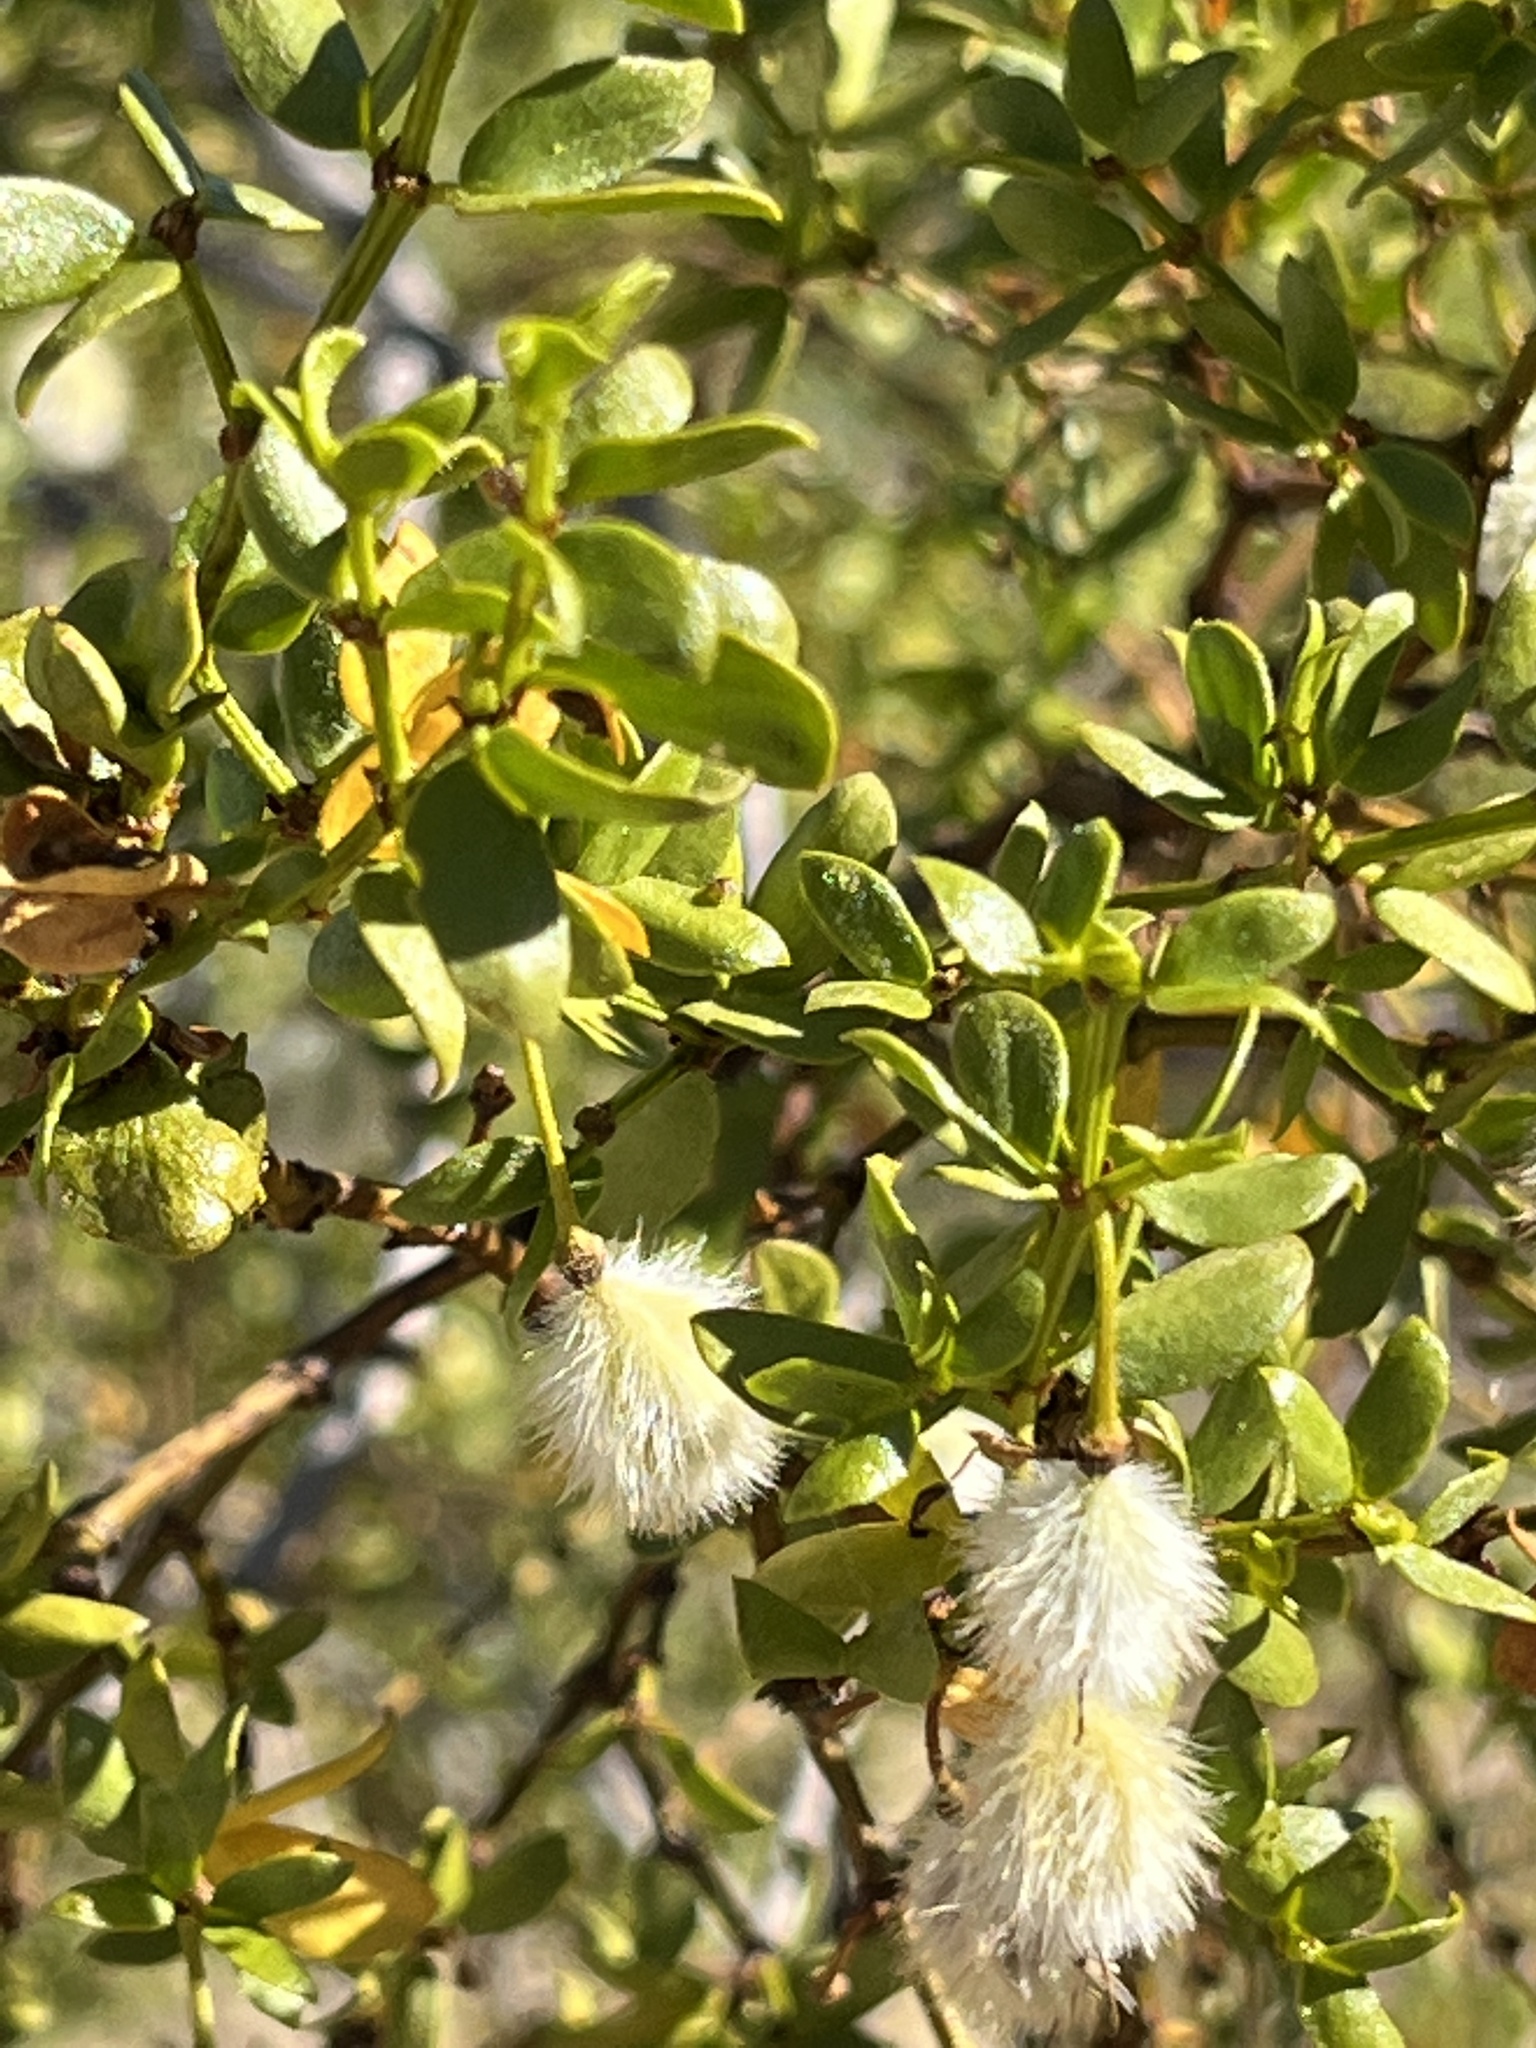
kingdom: Plantae
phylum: Tracheophyta
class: Magnoliopsida
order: Zygophyllales
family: Zygophyllaceae
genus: Larrea
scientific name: Larrea tridentata
